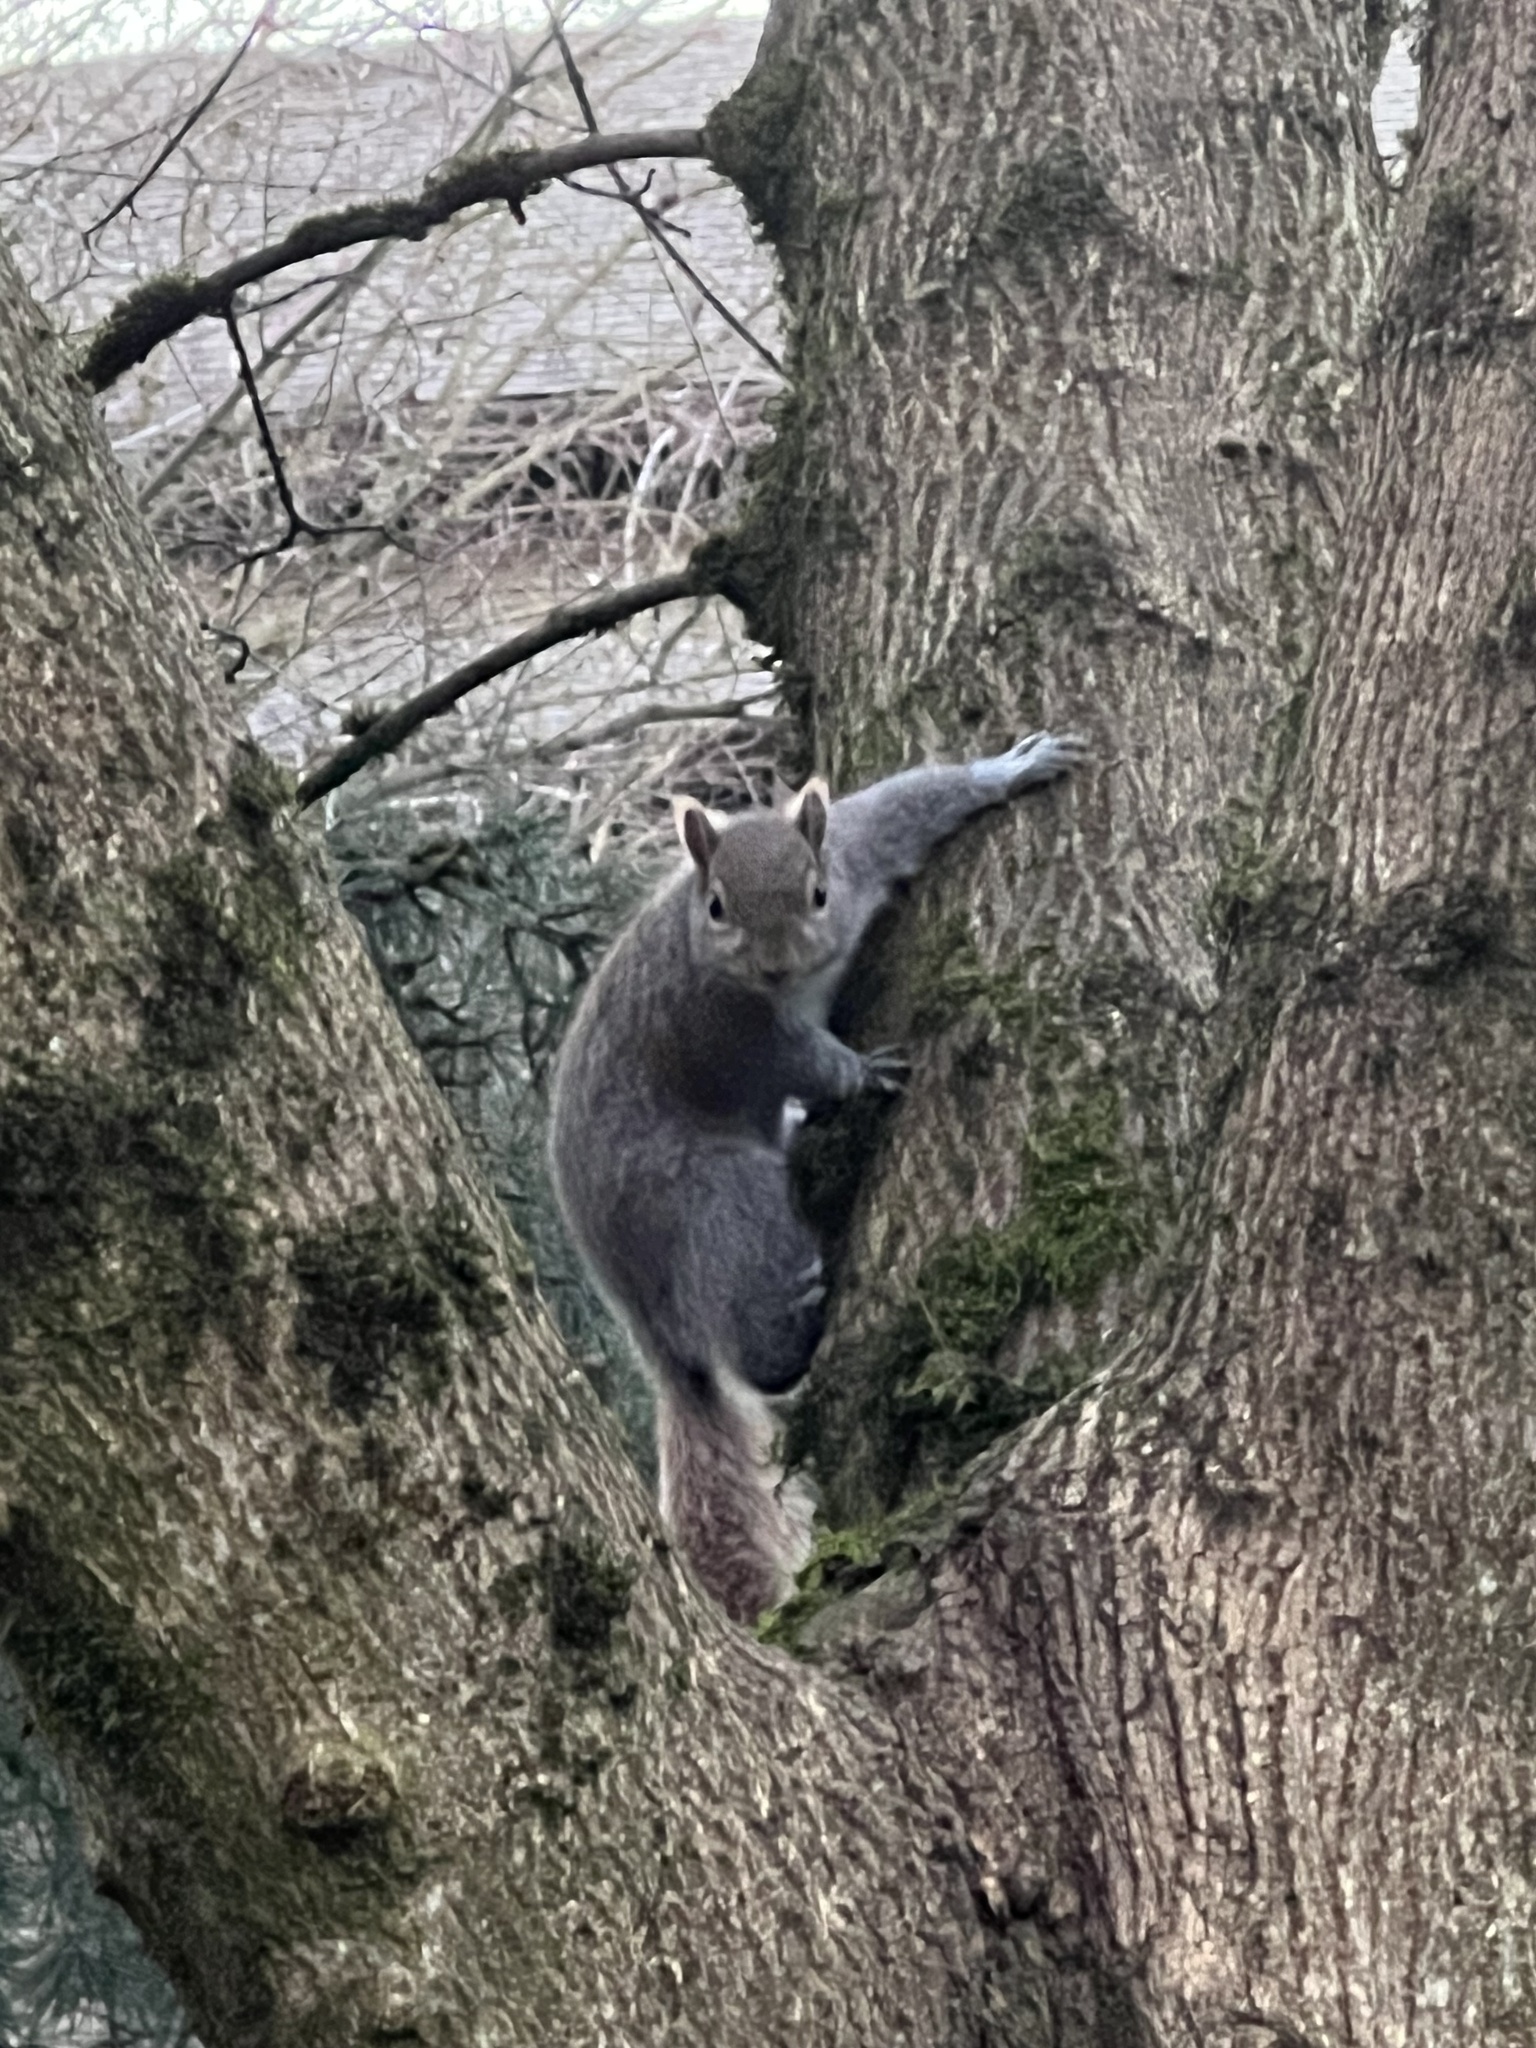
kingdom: Animalia
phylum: Chordata
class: Mammalia
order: Rodentia
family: Sciuridae
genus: Sciurus
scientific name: Sciurus carolinensis
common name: Eastern gray squirrel
